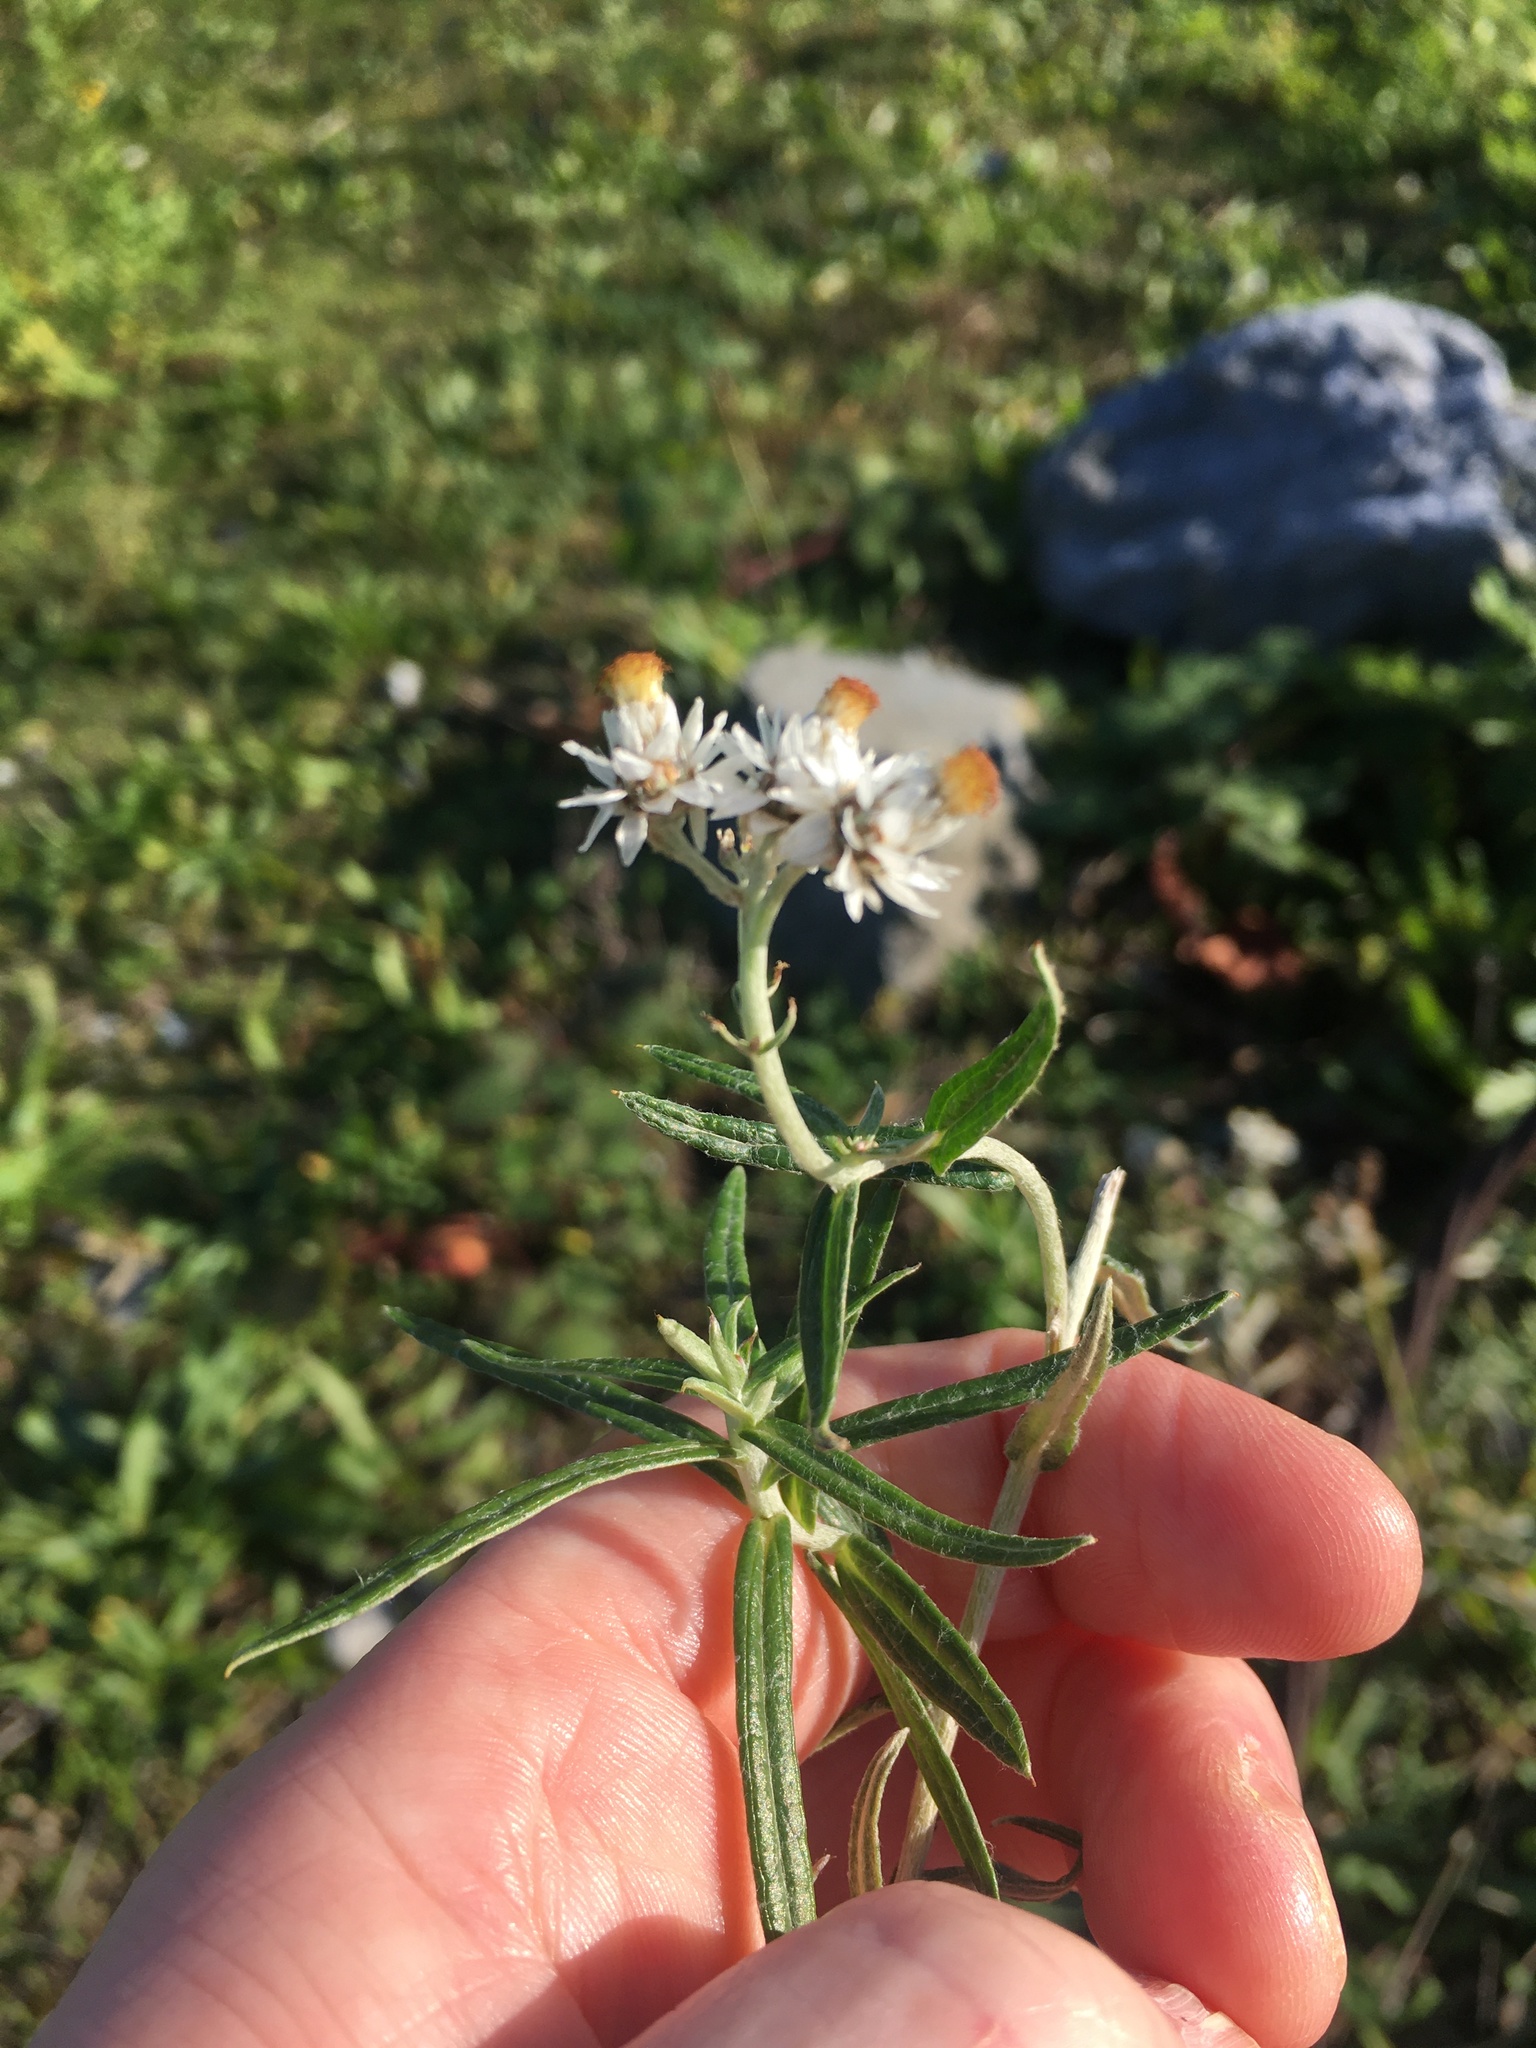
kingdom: Plantae
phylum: Tracheophyta
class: Magnoliopsida
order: Asterales
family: Asteraceae
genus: Anaphalis
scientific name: Anaphalis margaritacea
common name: Pearly everlasting
